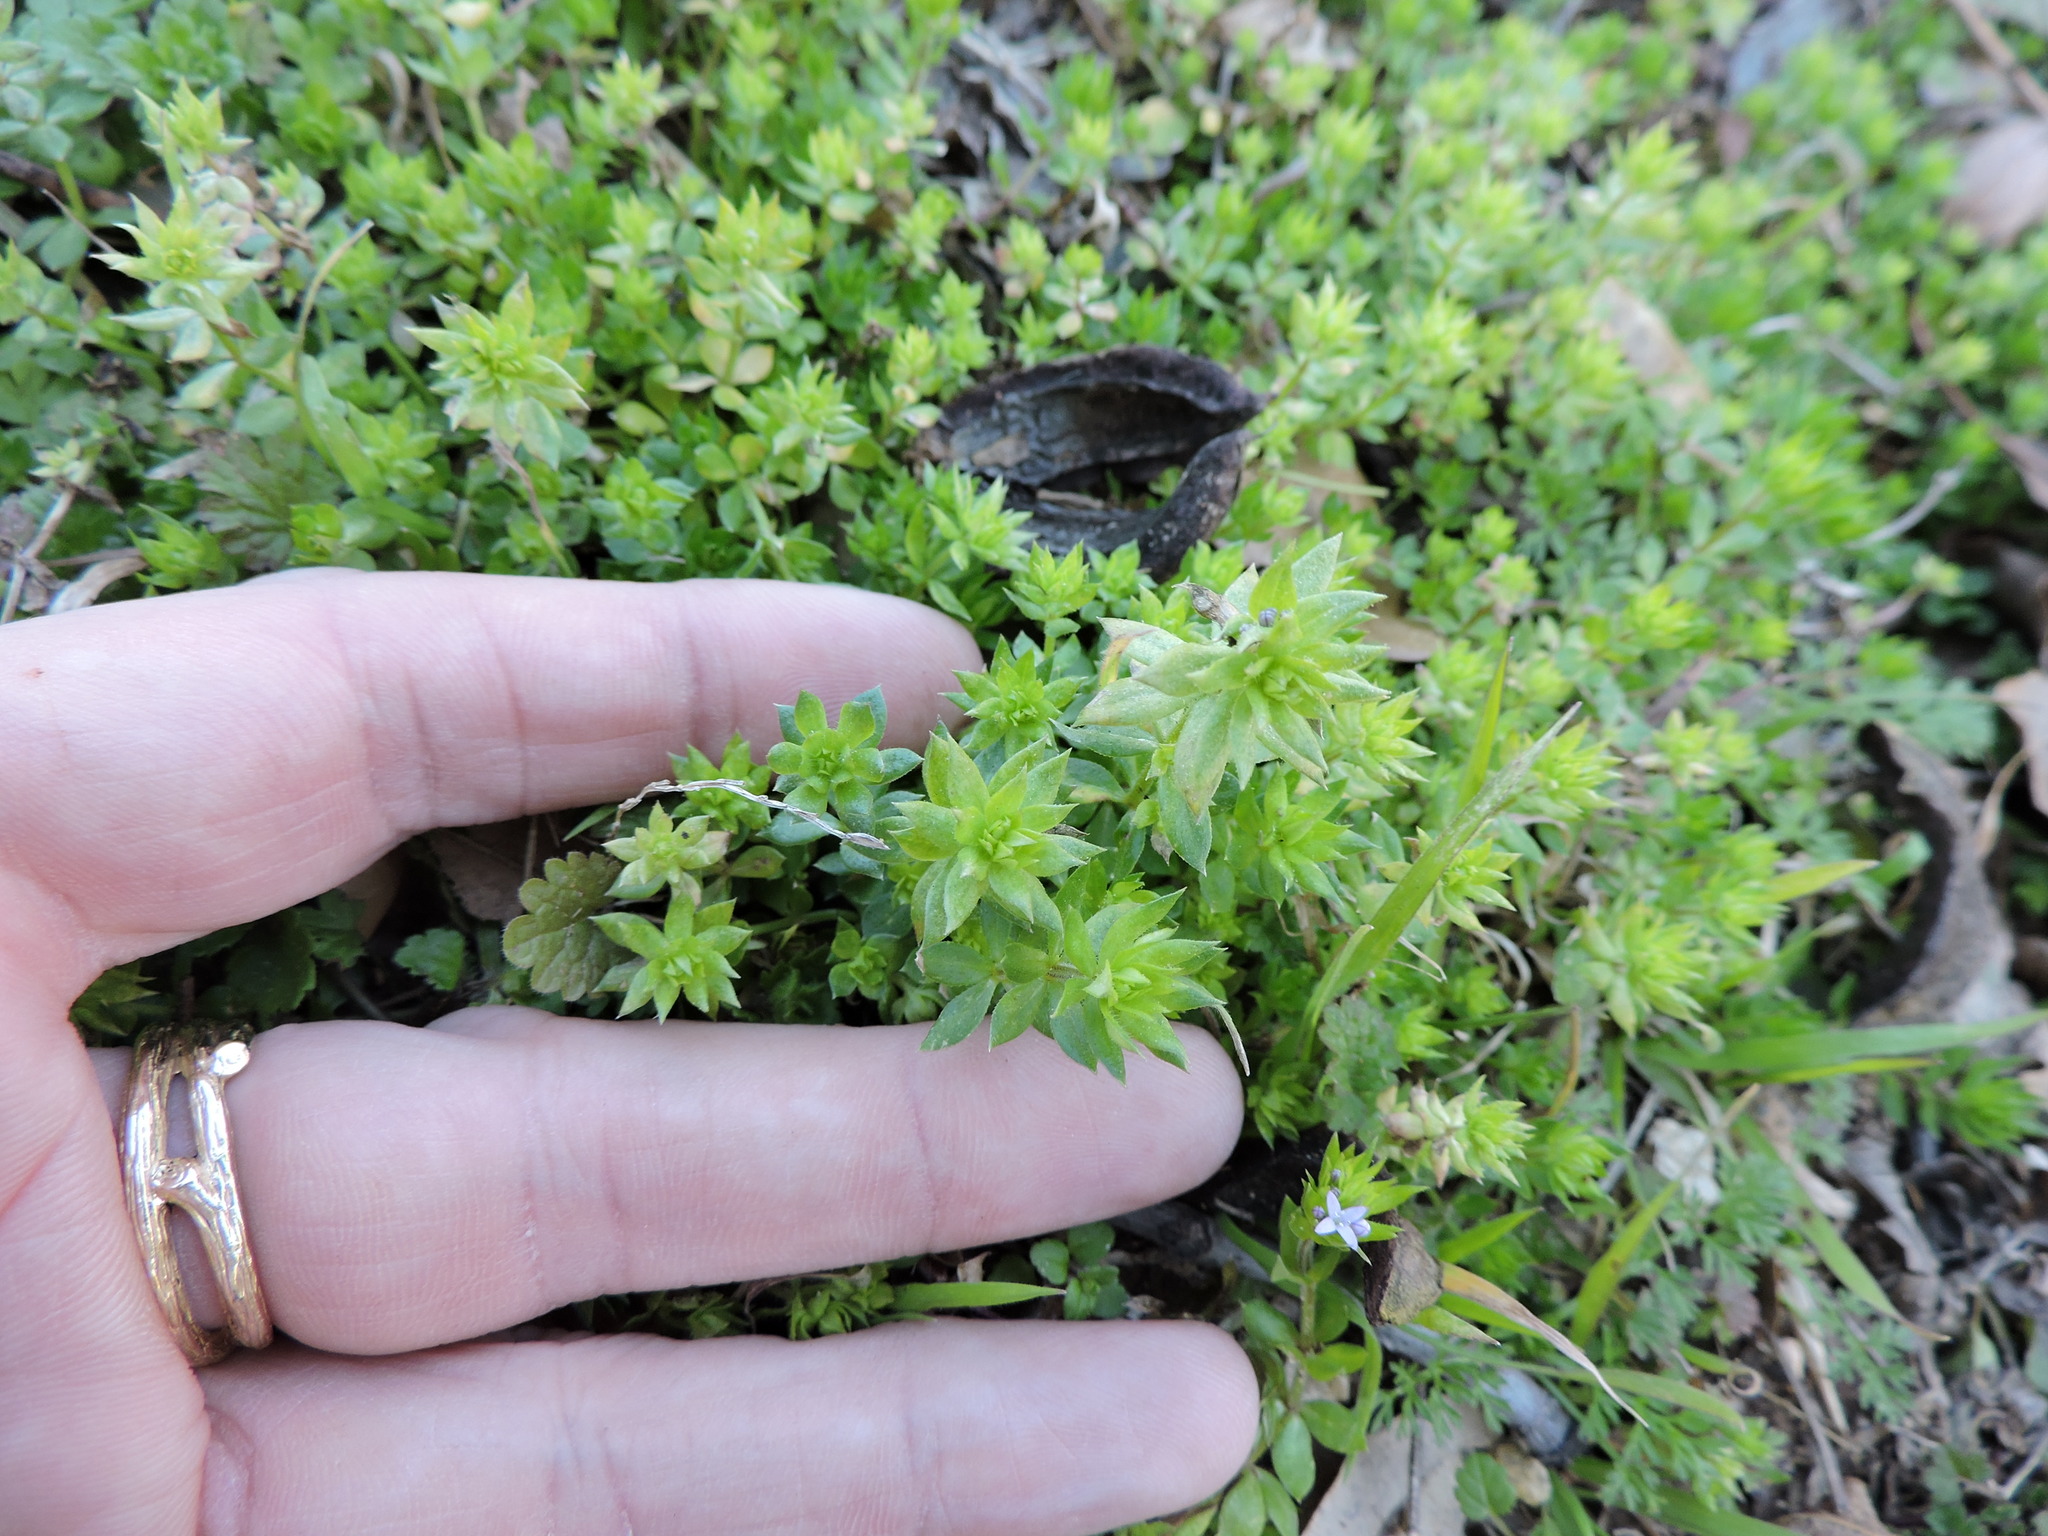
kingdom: Plantae
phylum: Tracheophyta
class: Magnoliopsida
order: Gentianales
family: Rubiaceae
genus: Sherardia
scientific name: Sherardia arvensis
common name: Field madder
